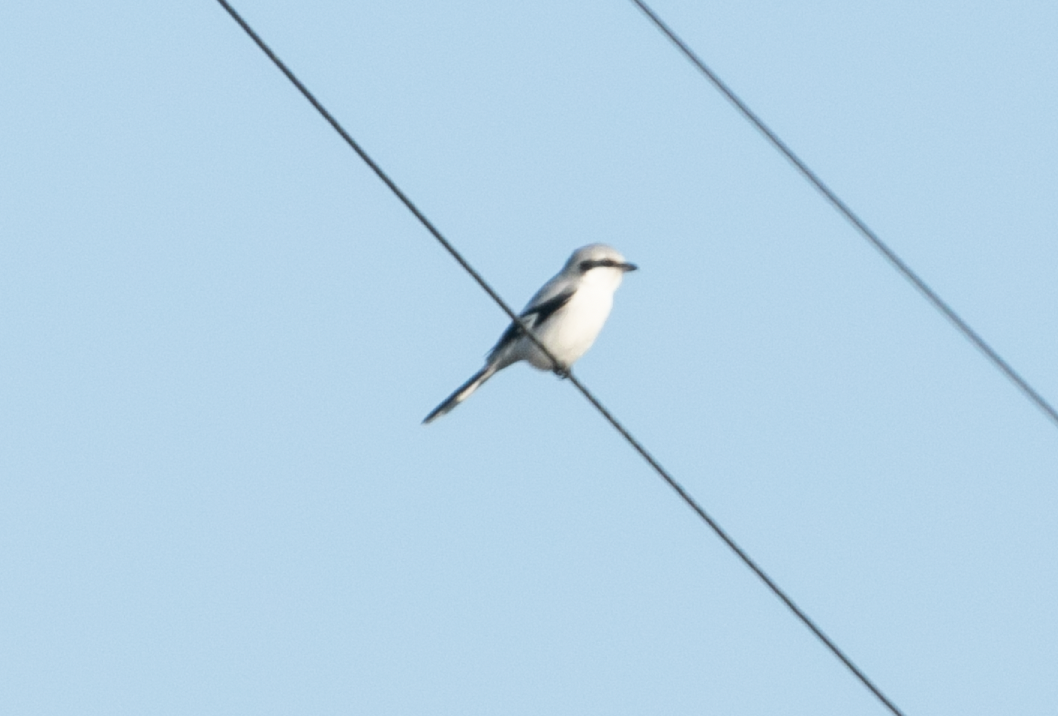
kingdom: Animalia
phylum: Chordata
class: Aves
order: Passeriformes
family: Laniidae
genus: Lanius
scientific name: Lanius excubitor
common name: Great grey shrike
